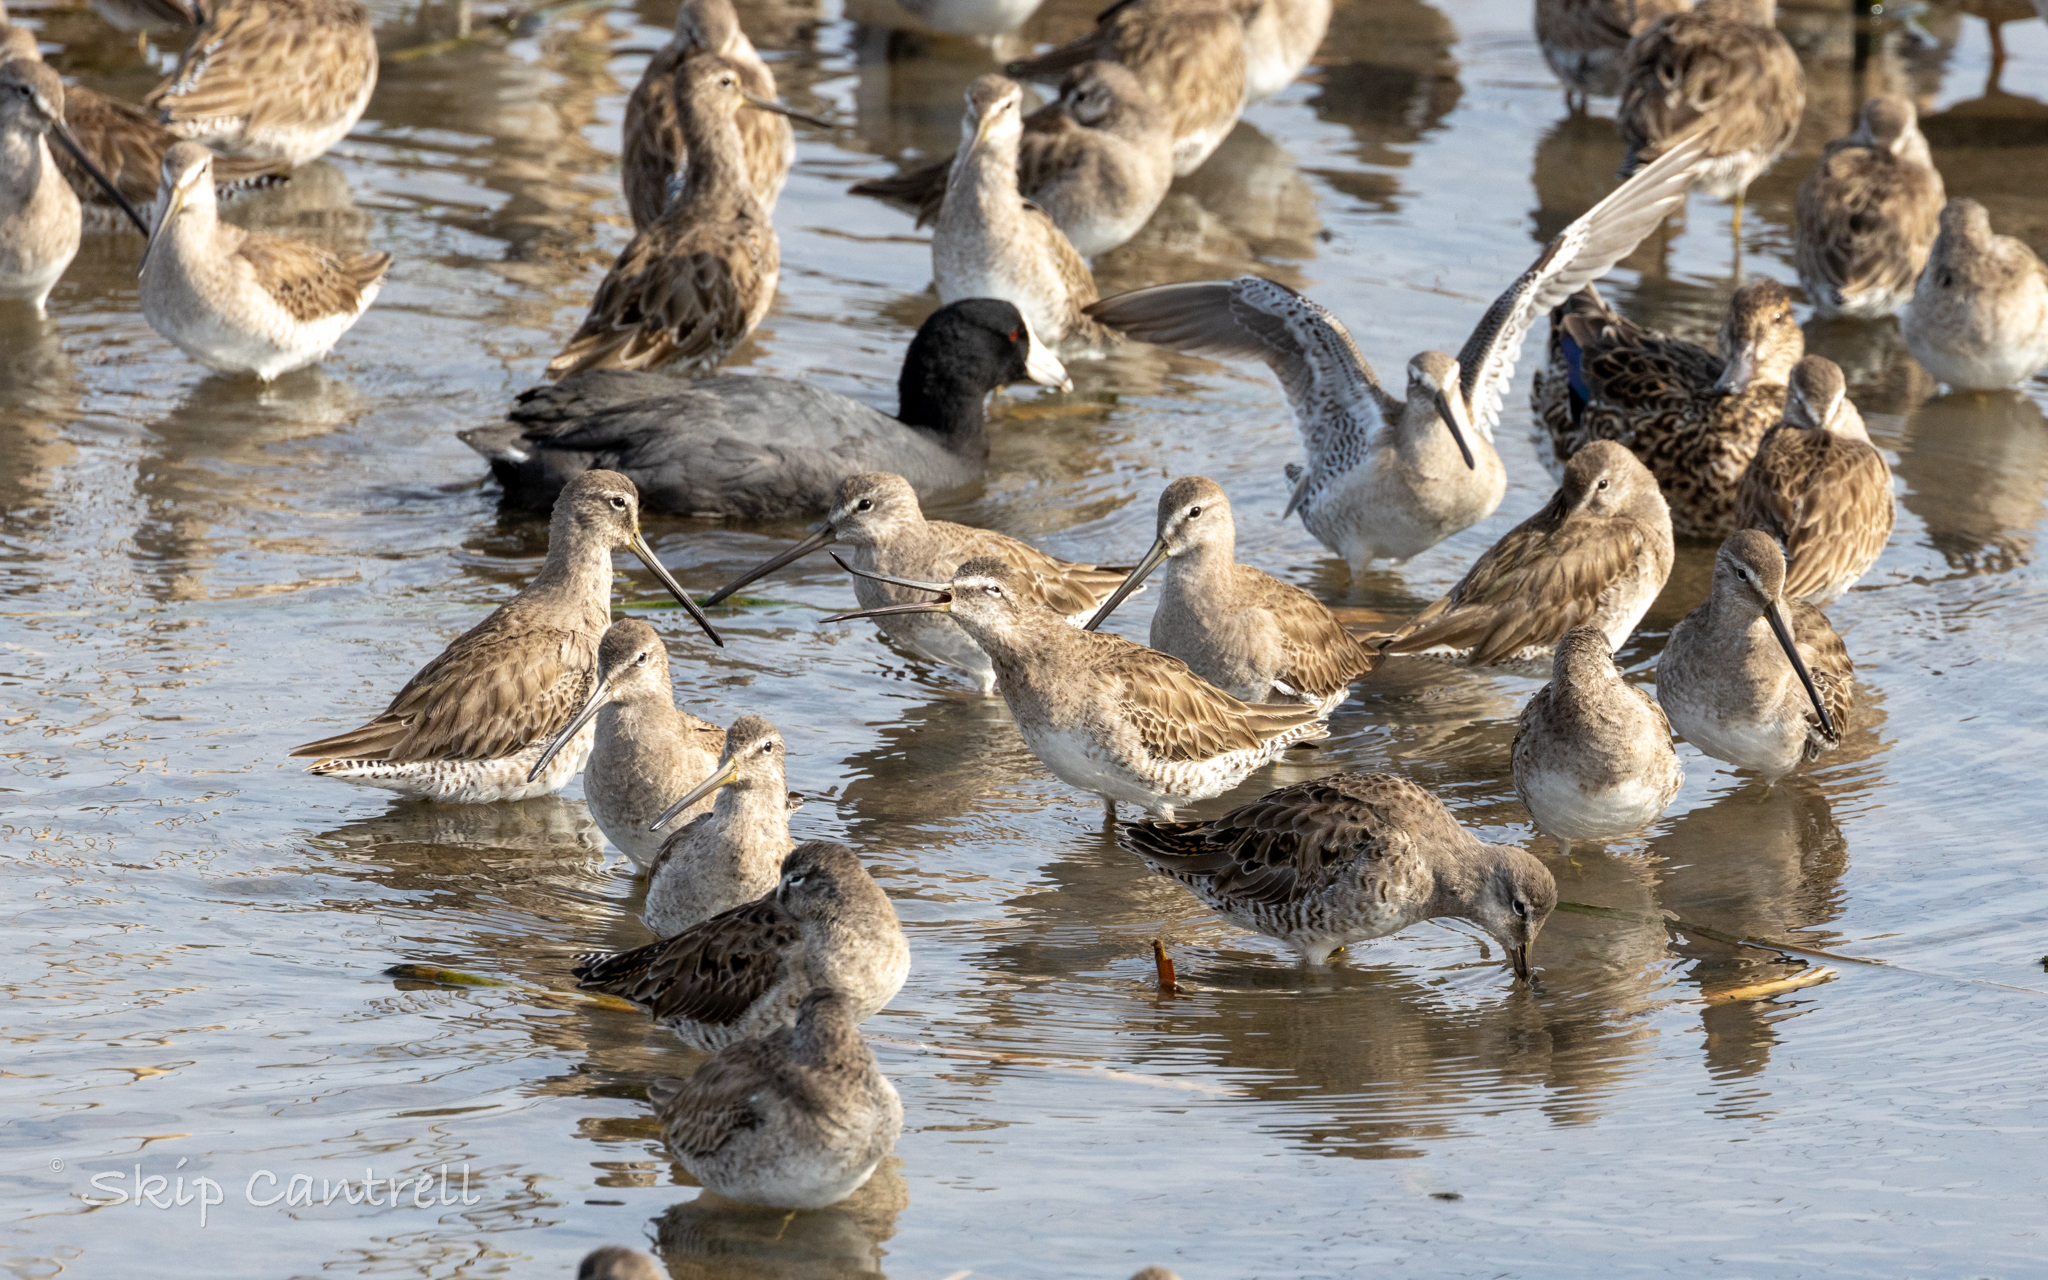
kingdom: Animalia
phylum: Chordata
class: Aves
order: Charadriiformes
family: Scolopacidae
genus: Limnodromus
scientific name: Limnodromus scolopaceus
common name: Long-billed dowitcher
